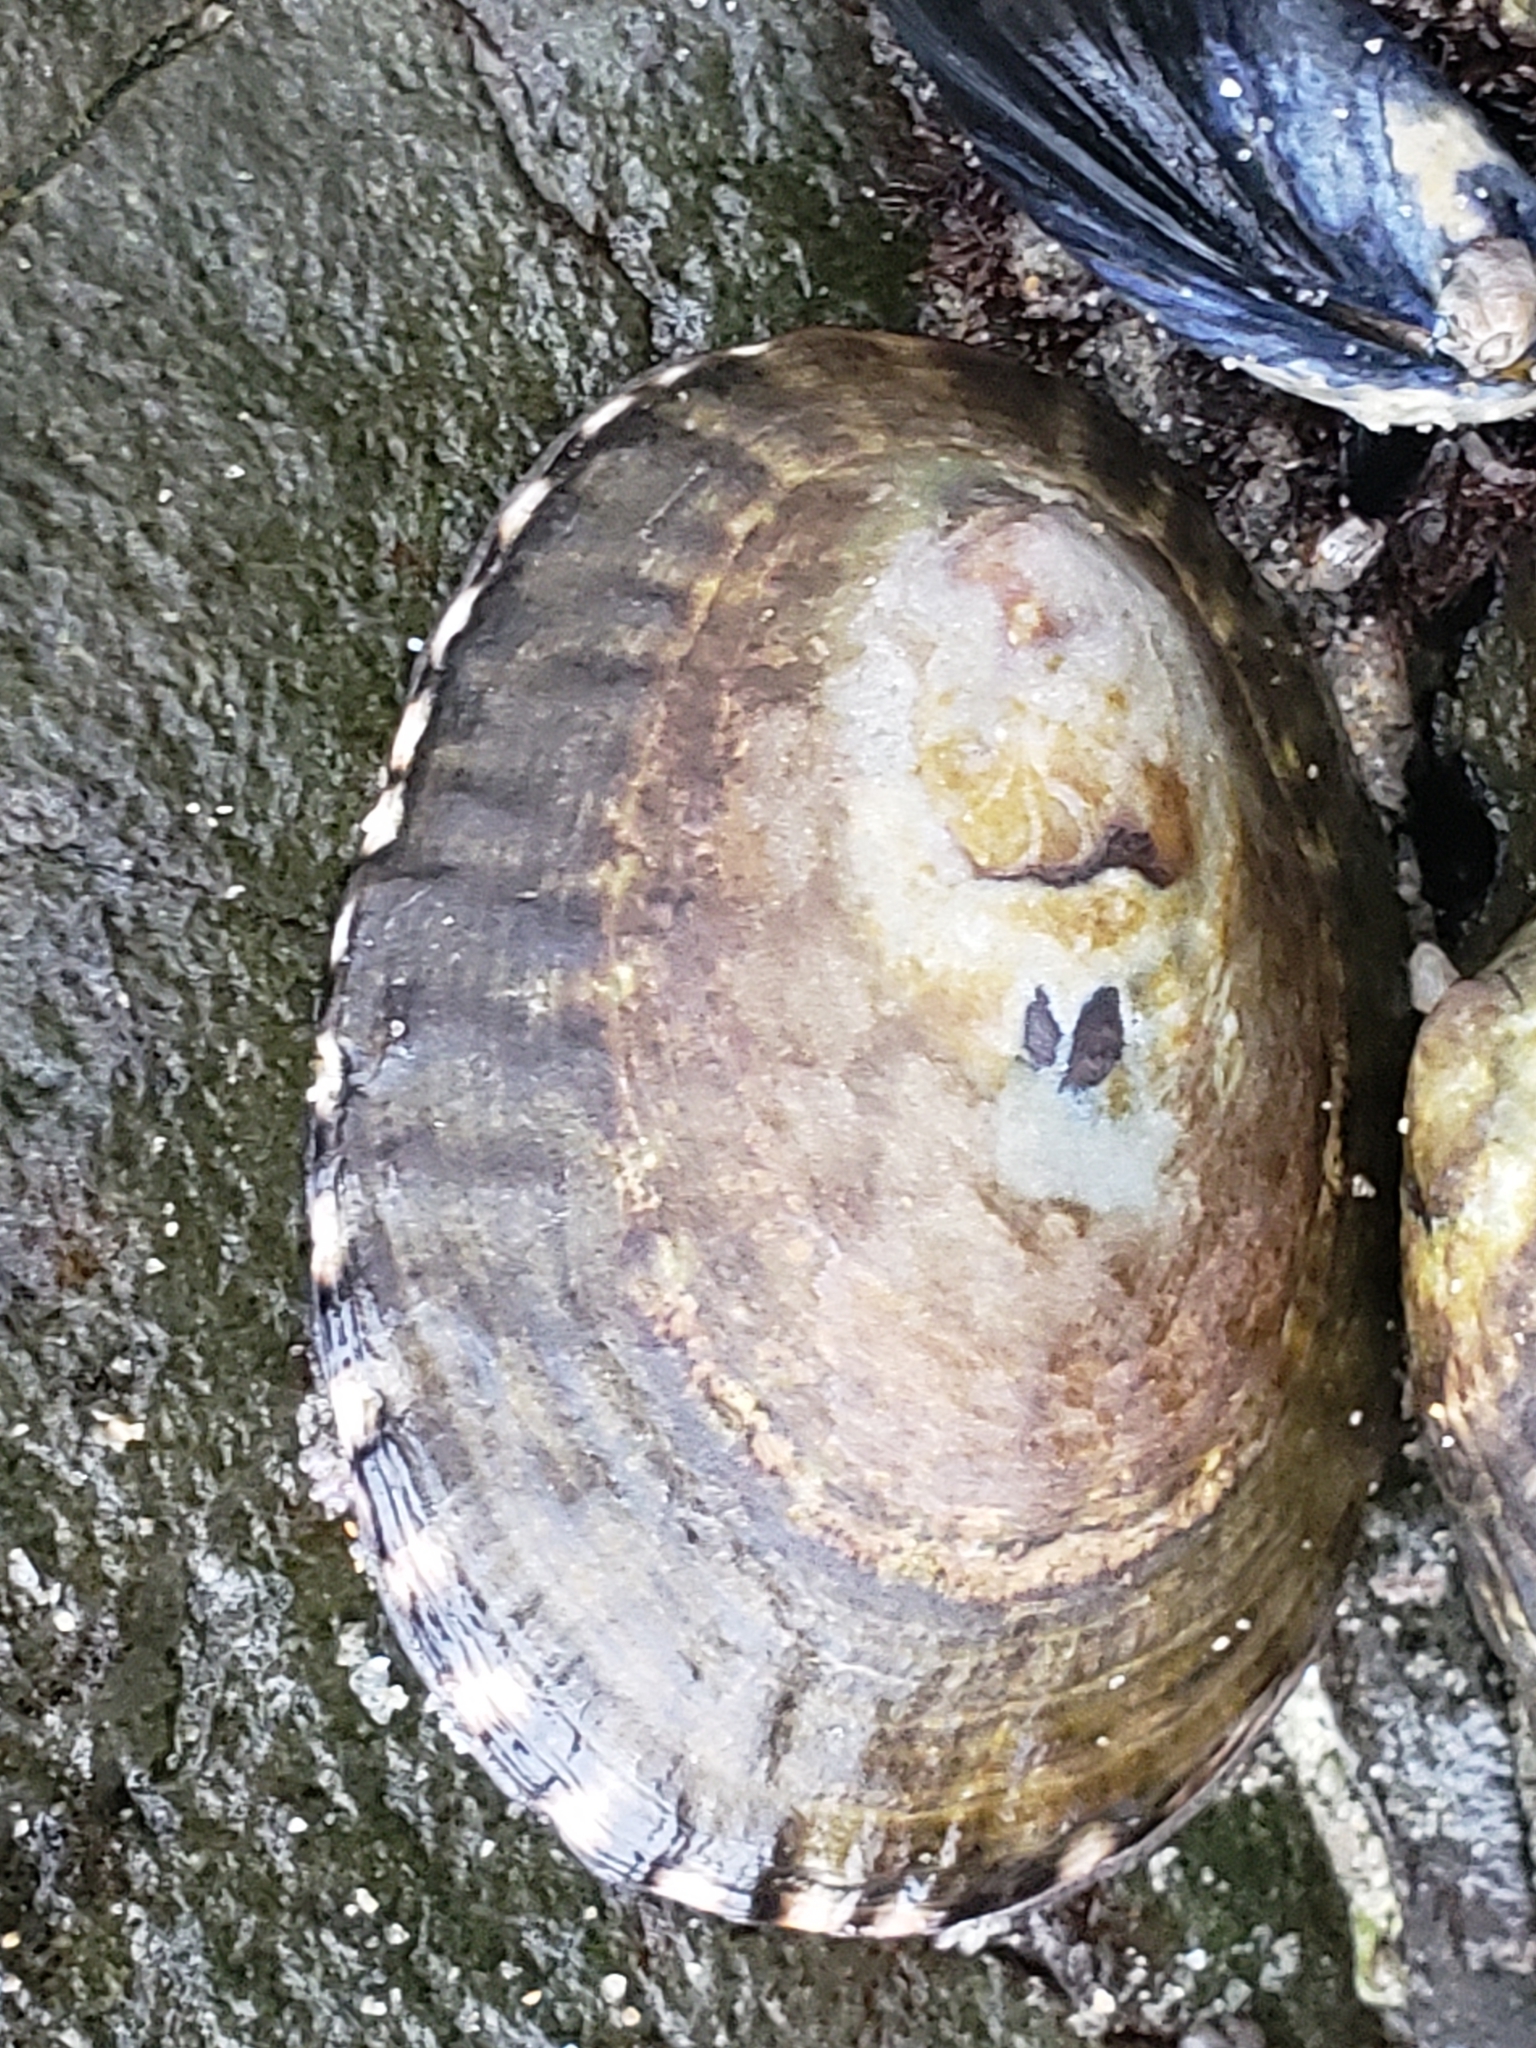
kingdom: Animalia
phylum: Mollusca
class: Gastropoda
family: Lottiidae
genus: Lottia
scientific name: Lottia gigantea
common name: Owl limpet
